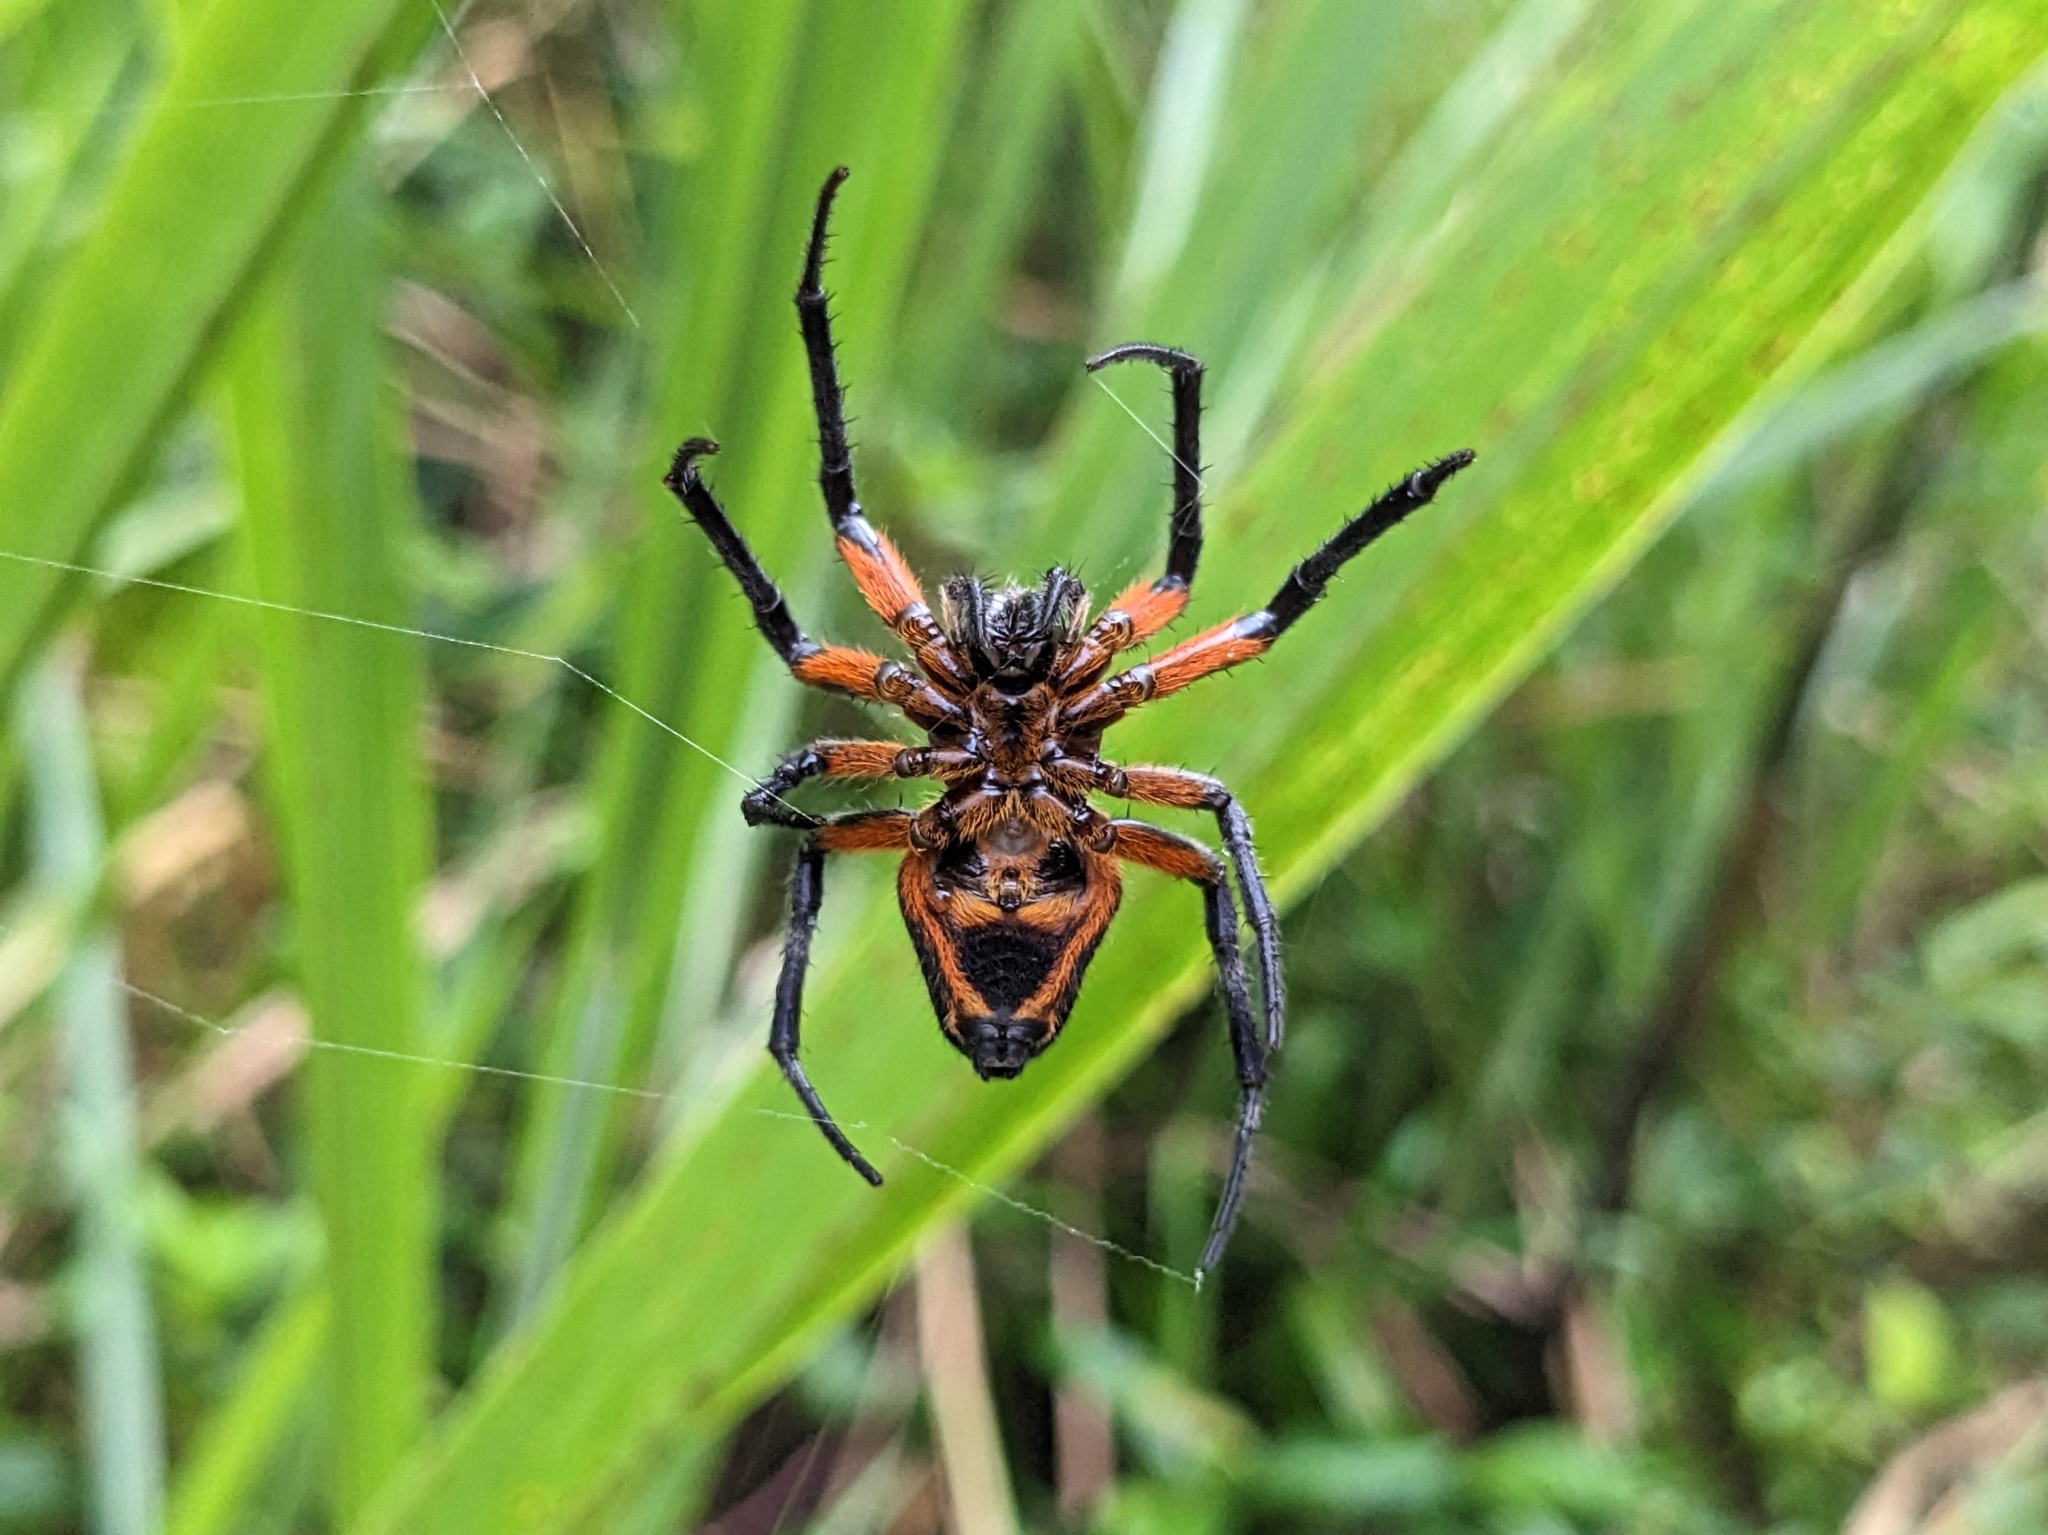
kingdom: Animalia
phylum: Arthropoda
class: Arachnida
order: Araneae
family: Araneidae
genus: Eriophora
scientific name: Eriophora fuliginea
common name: Orb weavers
